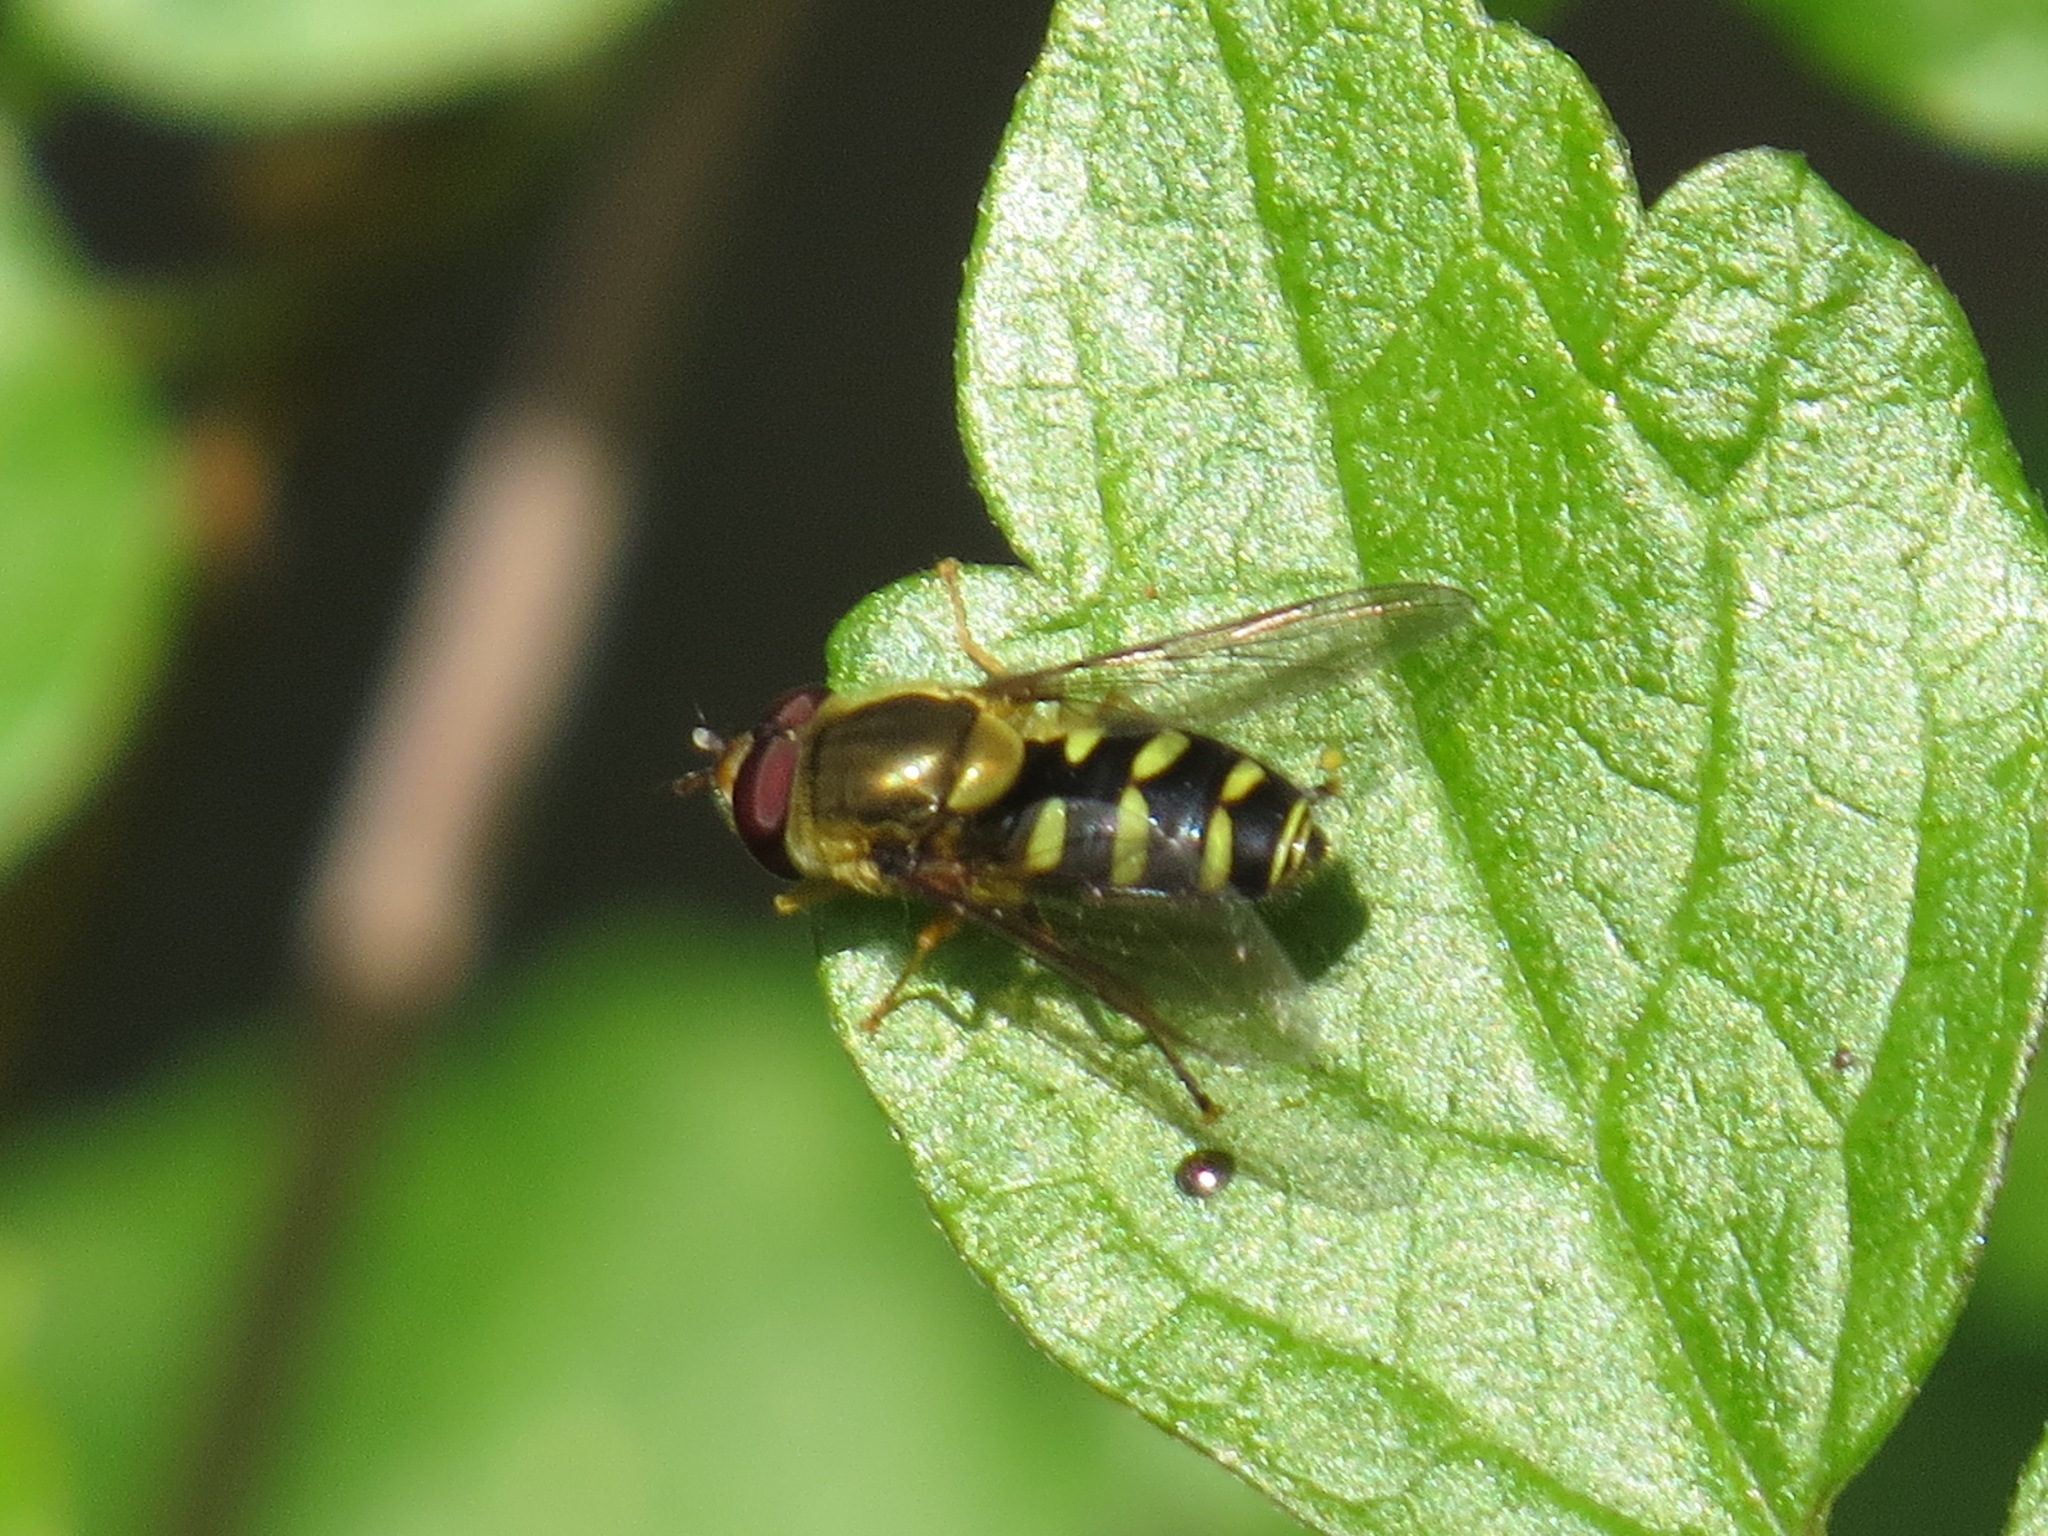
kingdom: Animalia
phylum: Arthropoda
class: Insecta
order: Diptera
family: Syrphidae
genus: Syrphus
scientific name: Syrphus opinator
